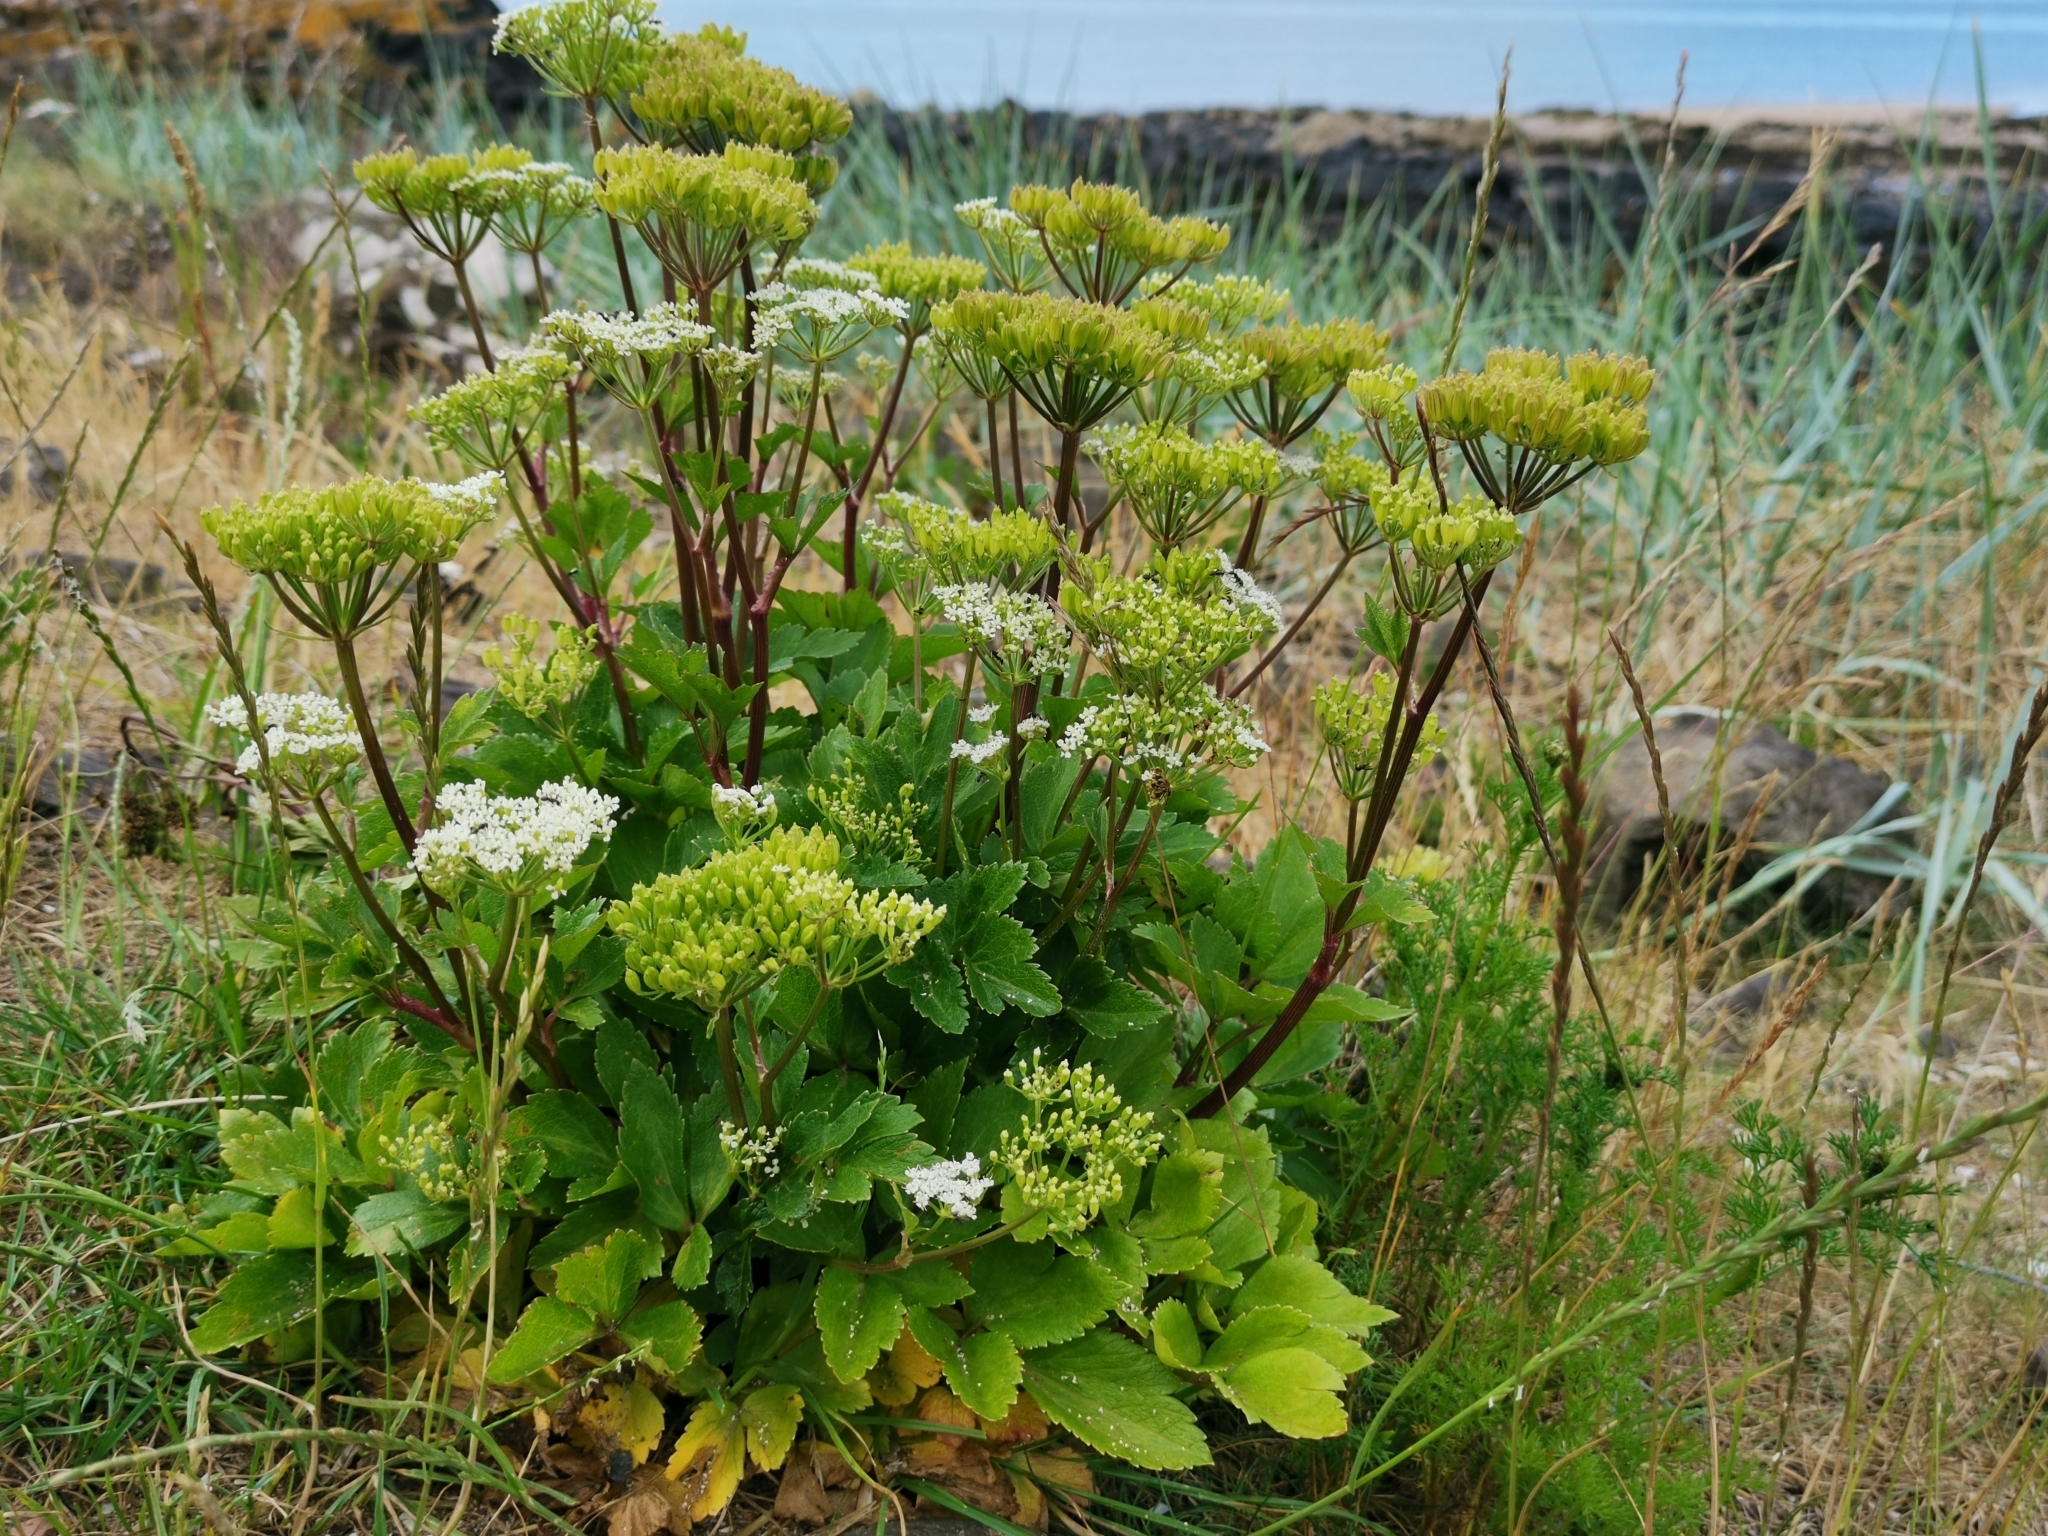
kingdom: Plantae
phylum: Tracheophyta
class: Magnoliopsida
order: Apiales
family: Apiaceae
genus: Ligusticum
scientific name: Ligusticum scothicum
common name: Beach lovage
